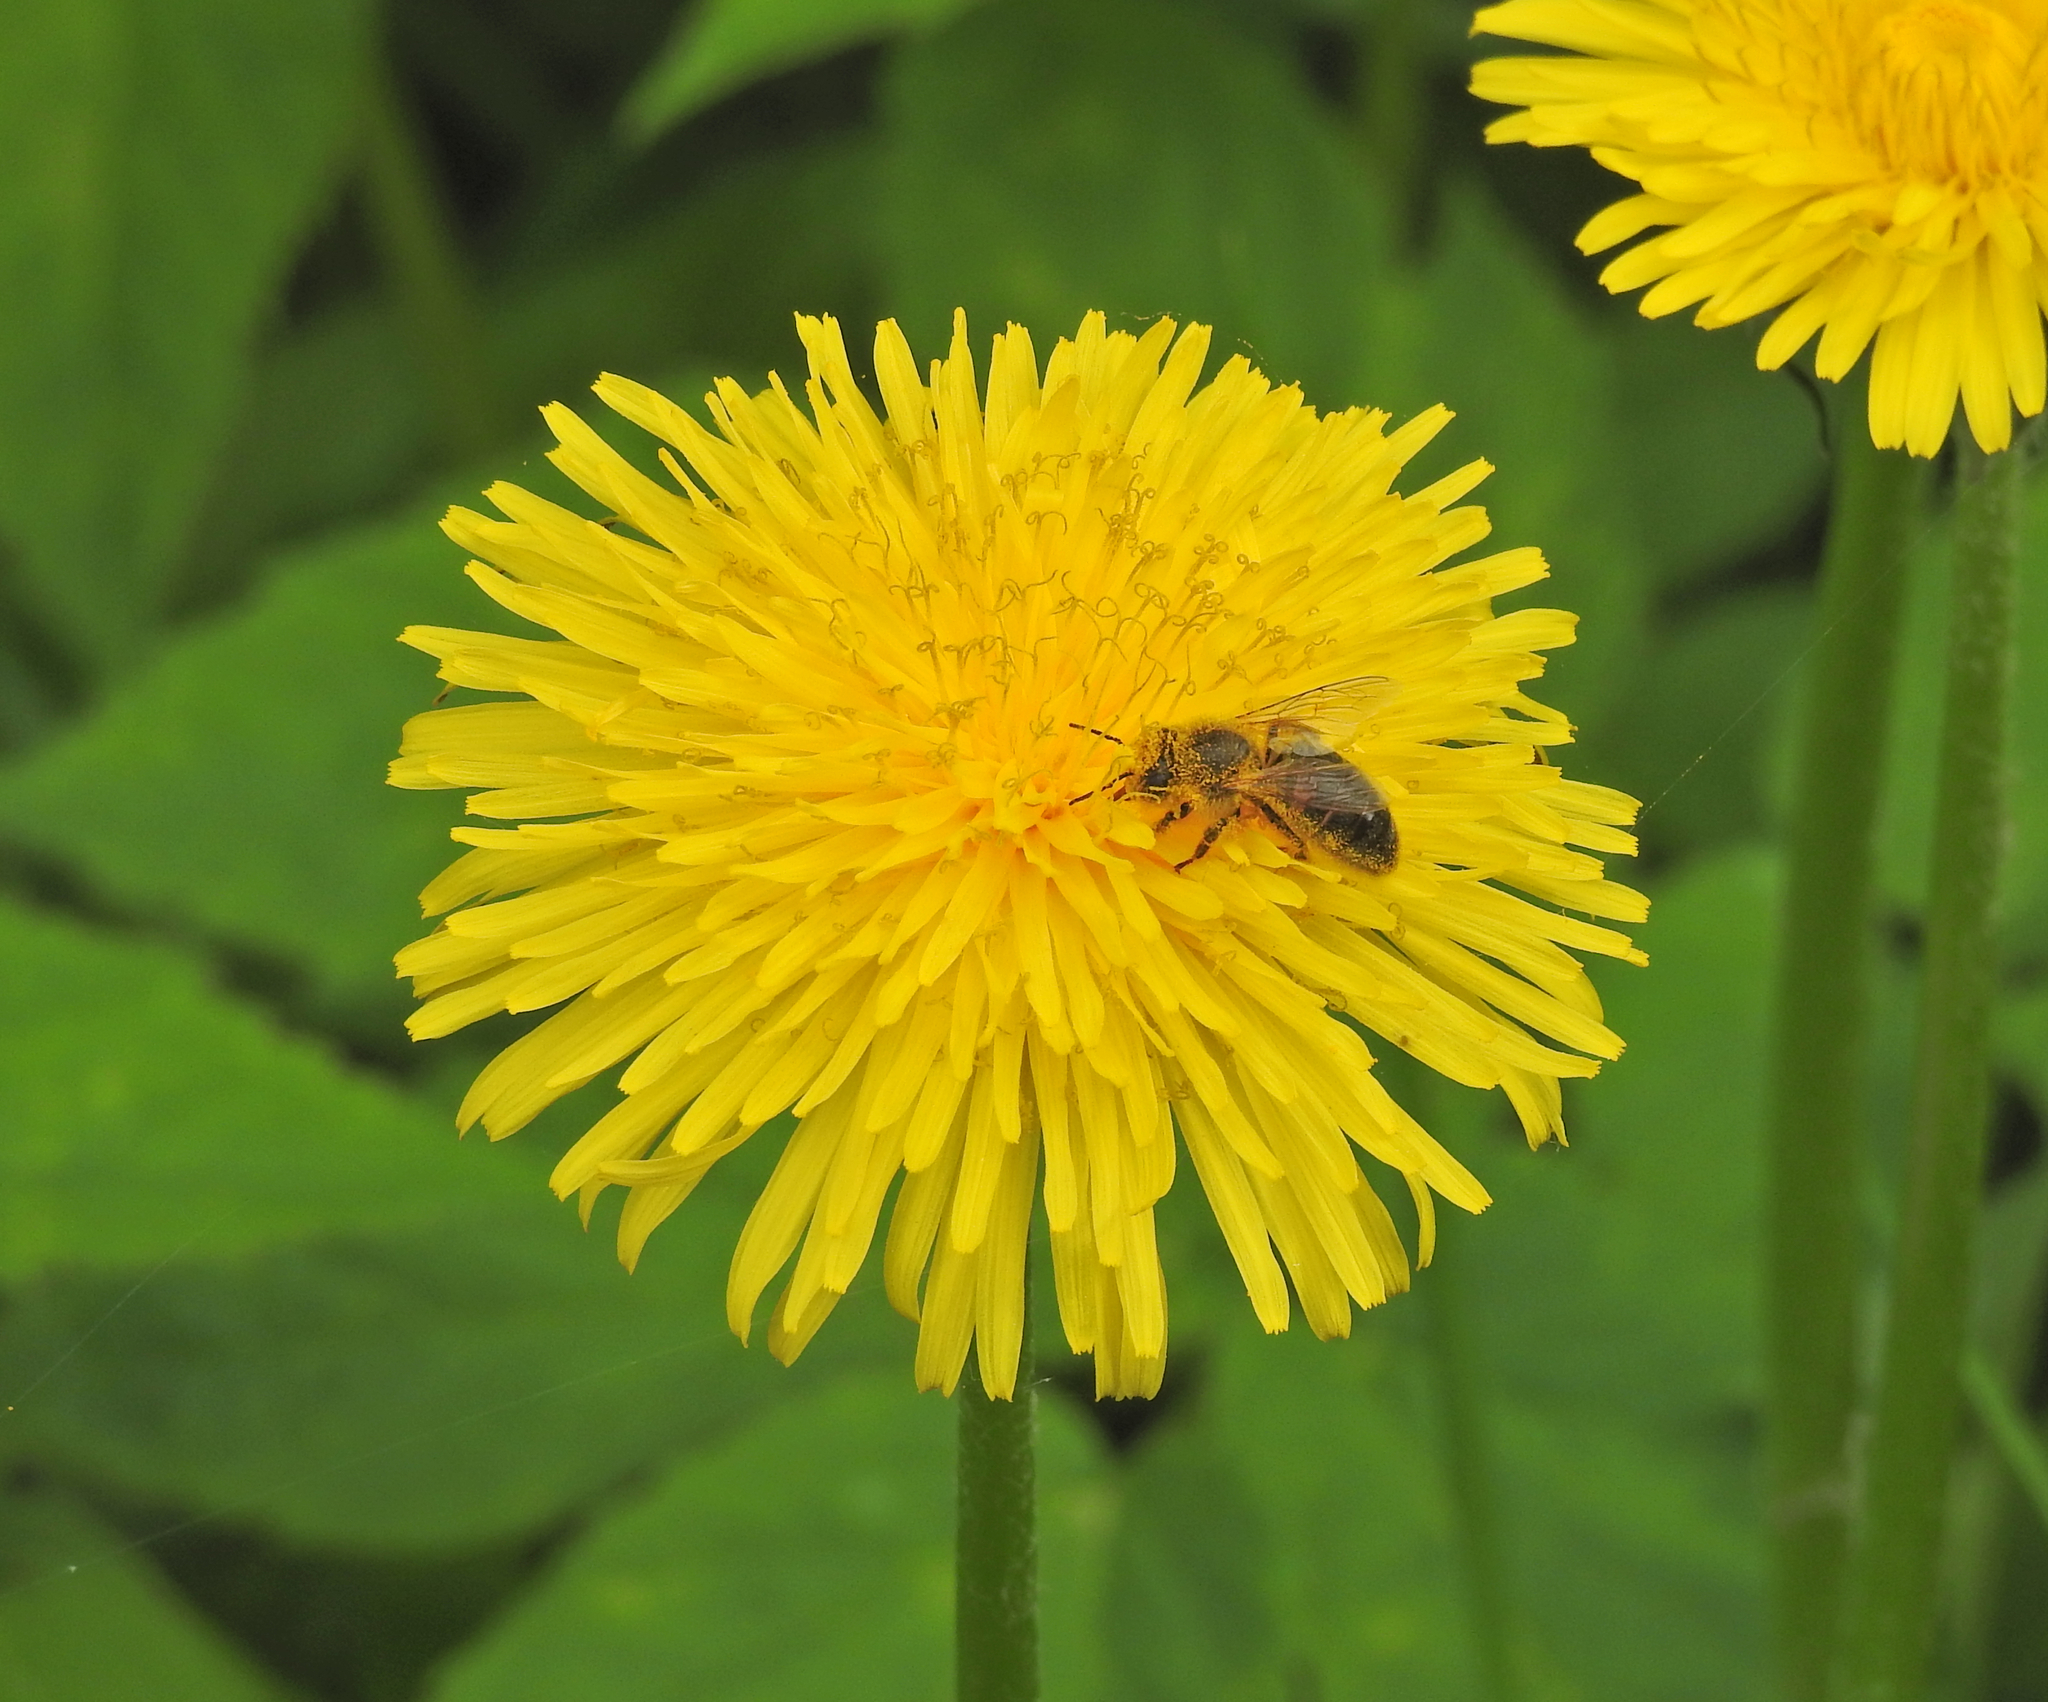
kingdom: Animalia
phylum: Arthropoda
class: Insecta
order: Hymenoptera
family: Apidae
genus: Apis
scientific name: Apis mellifera
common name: Honey bee
